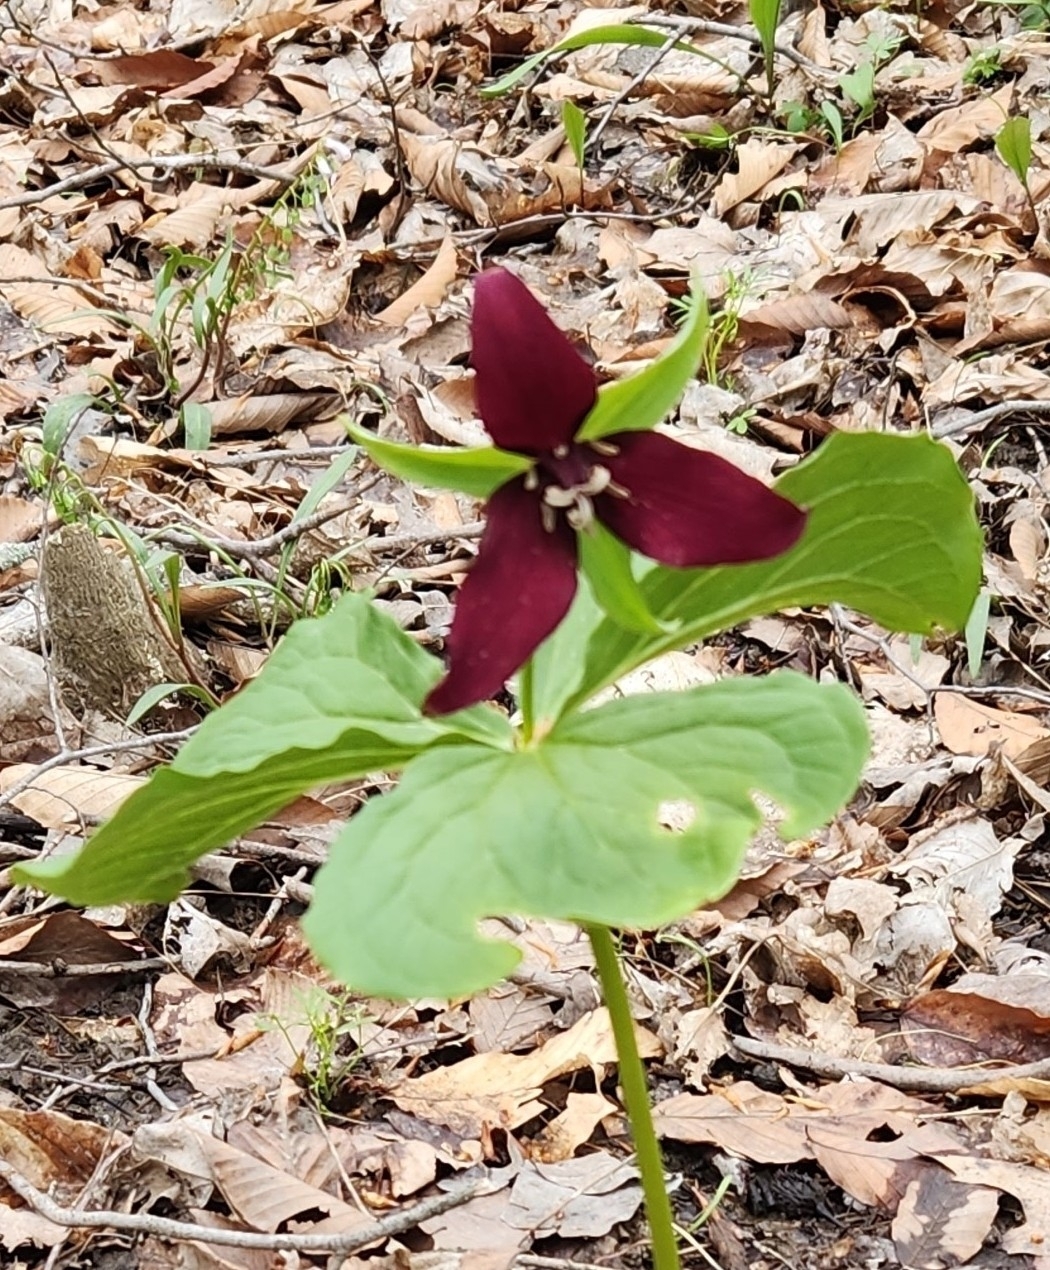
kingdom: Plantae
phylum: Tracheophyta
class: Liliopsida
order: Liliales
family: Melanthiaceae
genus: Trillium
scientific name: Trillium erectum
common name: Purple trillium
